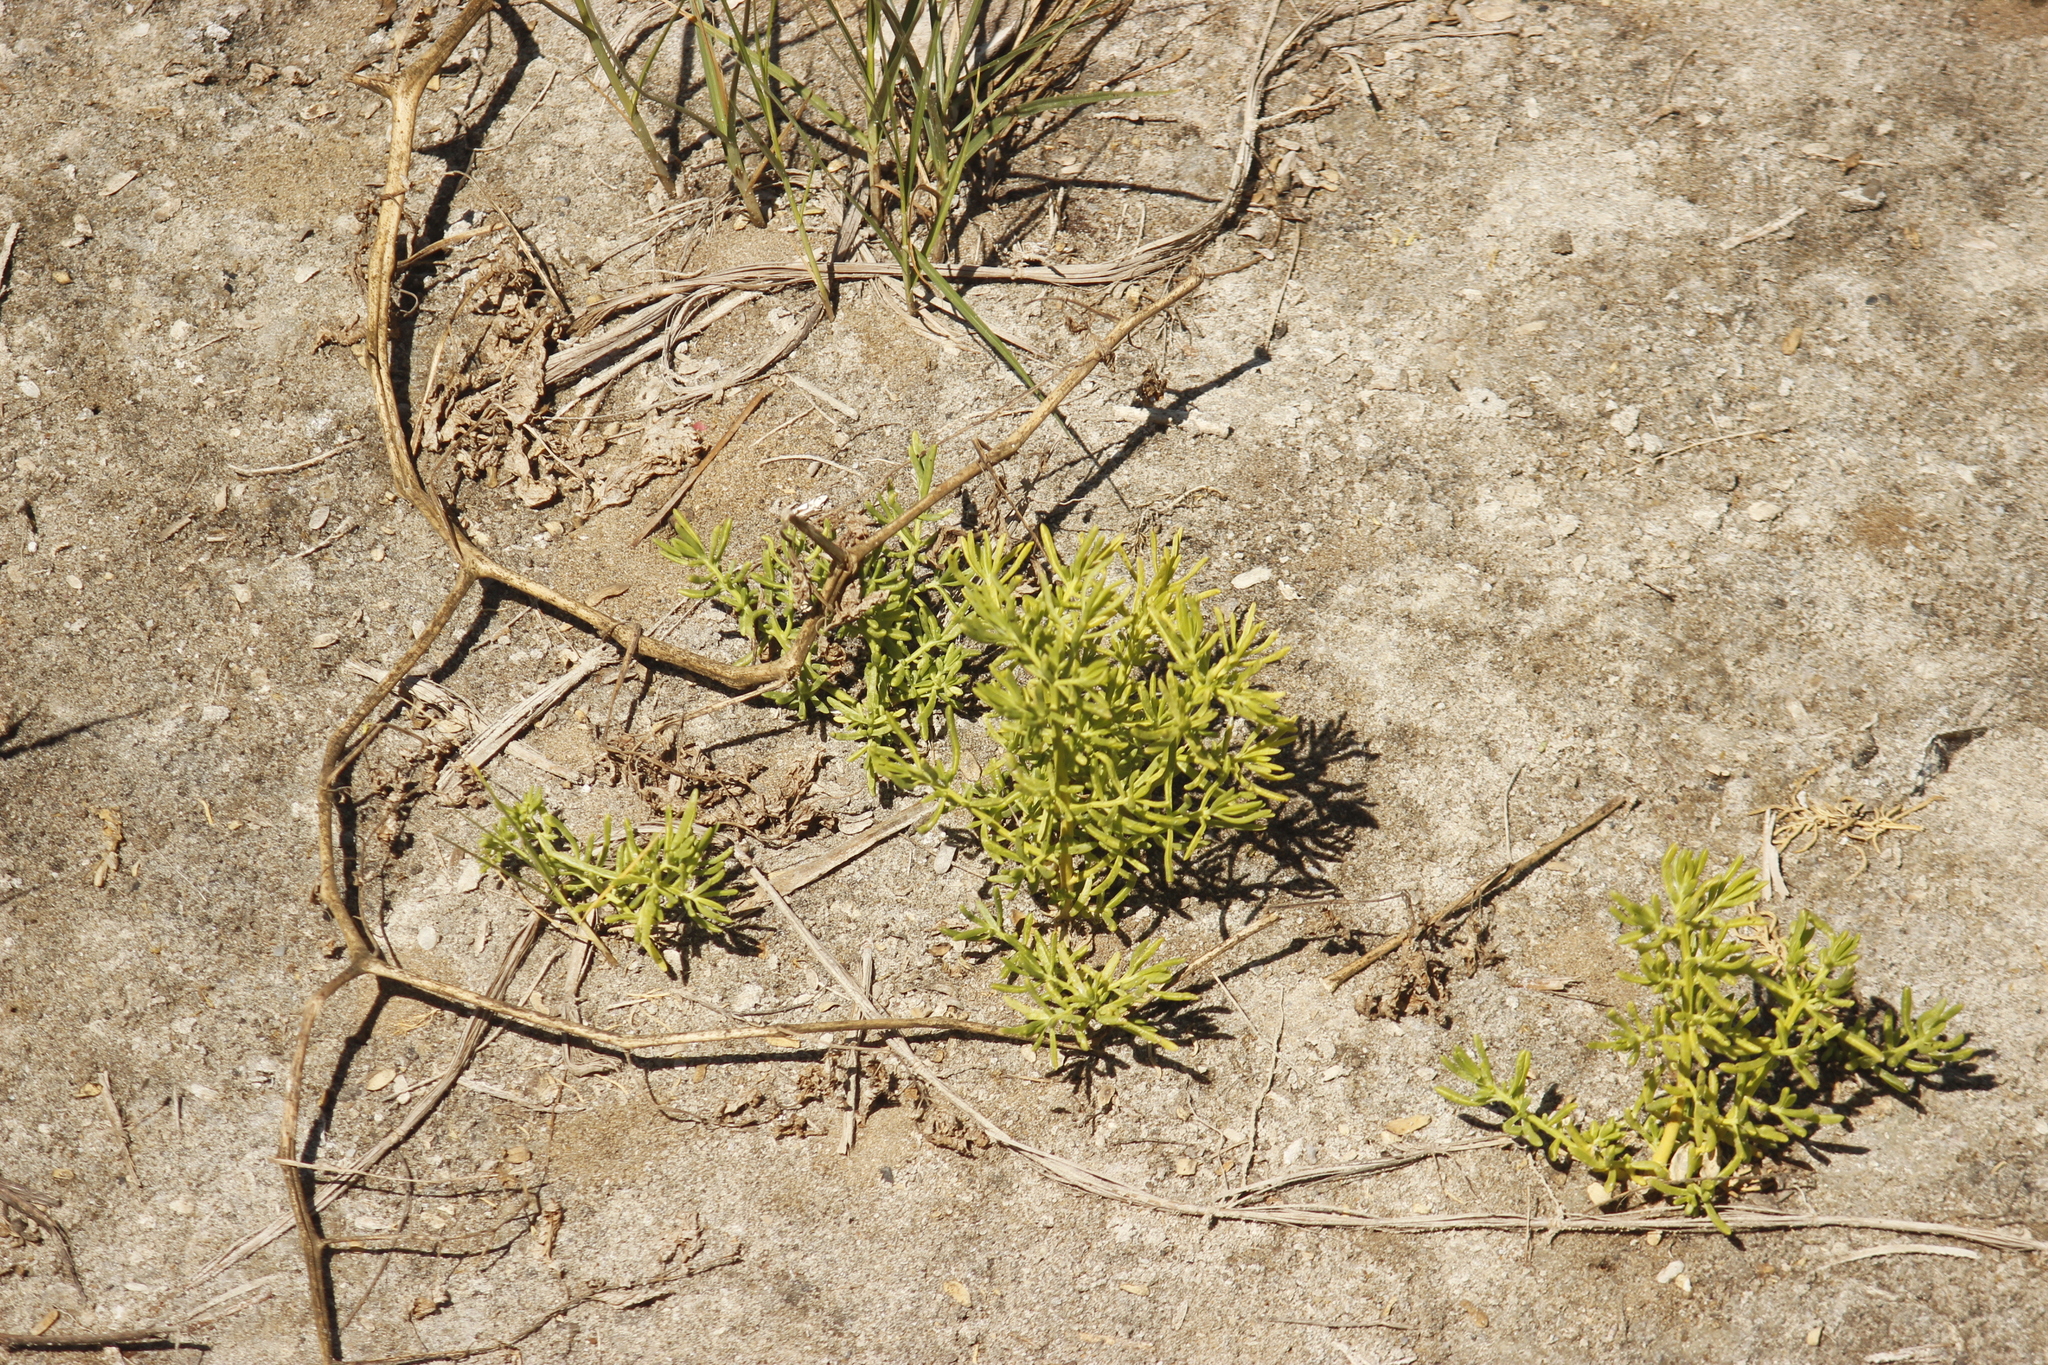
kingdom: Plantae
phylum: Tracheophyta
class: Magnoliopsida
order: Brassicales
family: Bataceae
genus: Batis
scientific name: Batis maritima
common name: Turtleweed
